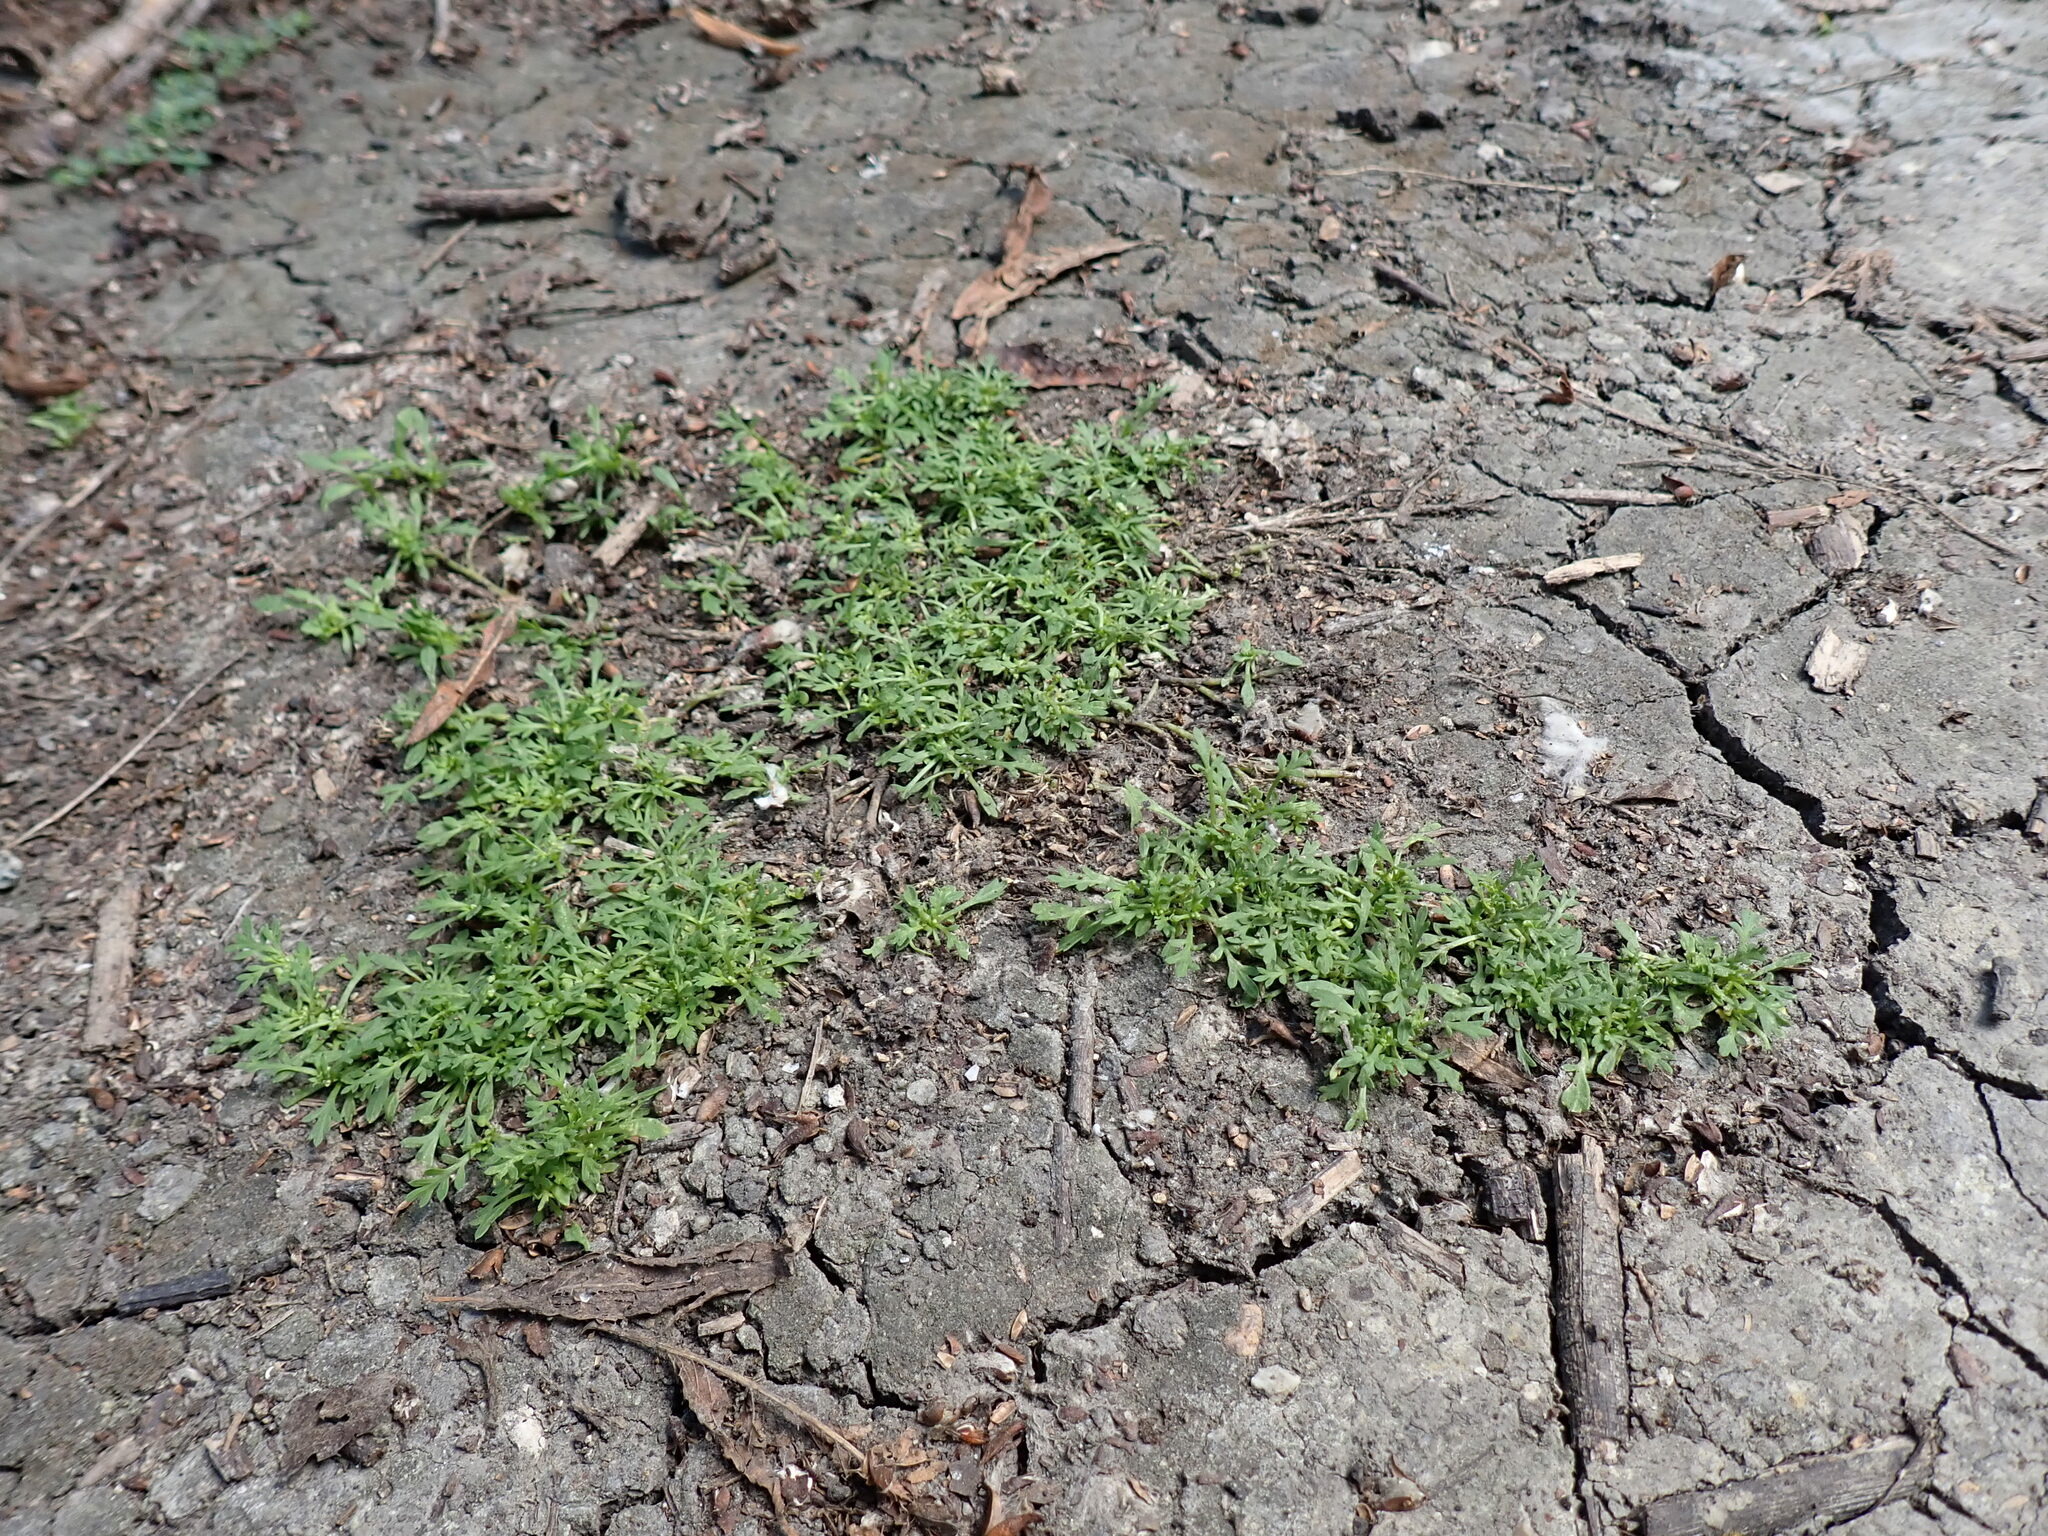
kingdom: Plantae
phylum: Tracheophyta
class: Magnoliopsida
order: Brassicales
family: Brassicaceae
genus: Lepidium
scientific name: Lepidium didymum
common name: Lesser swinecress
